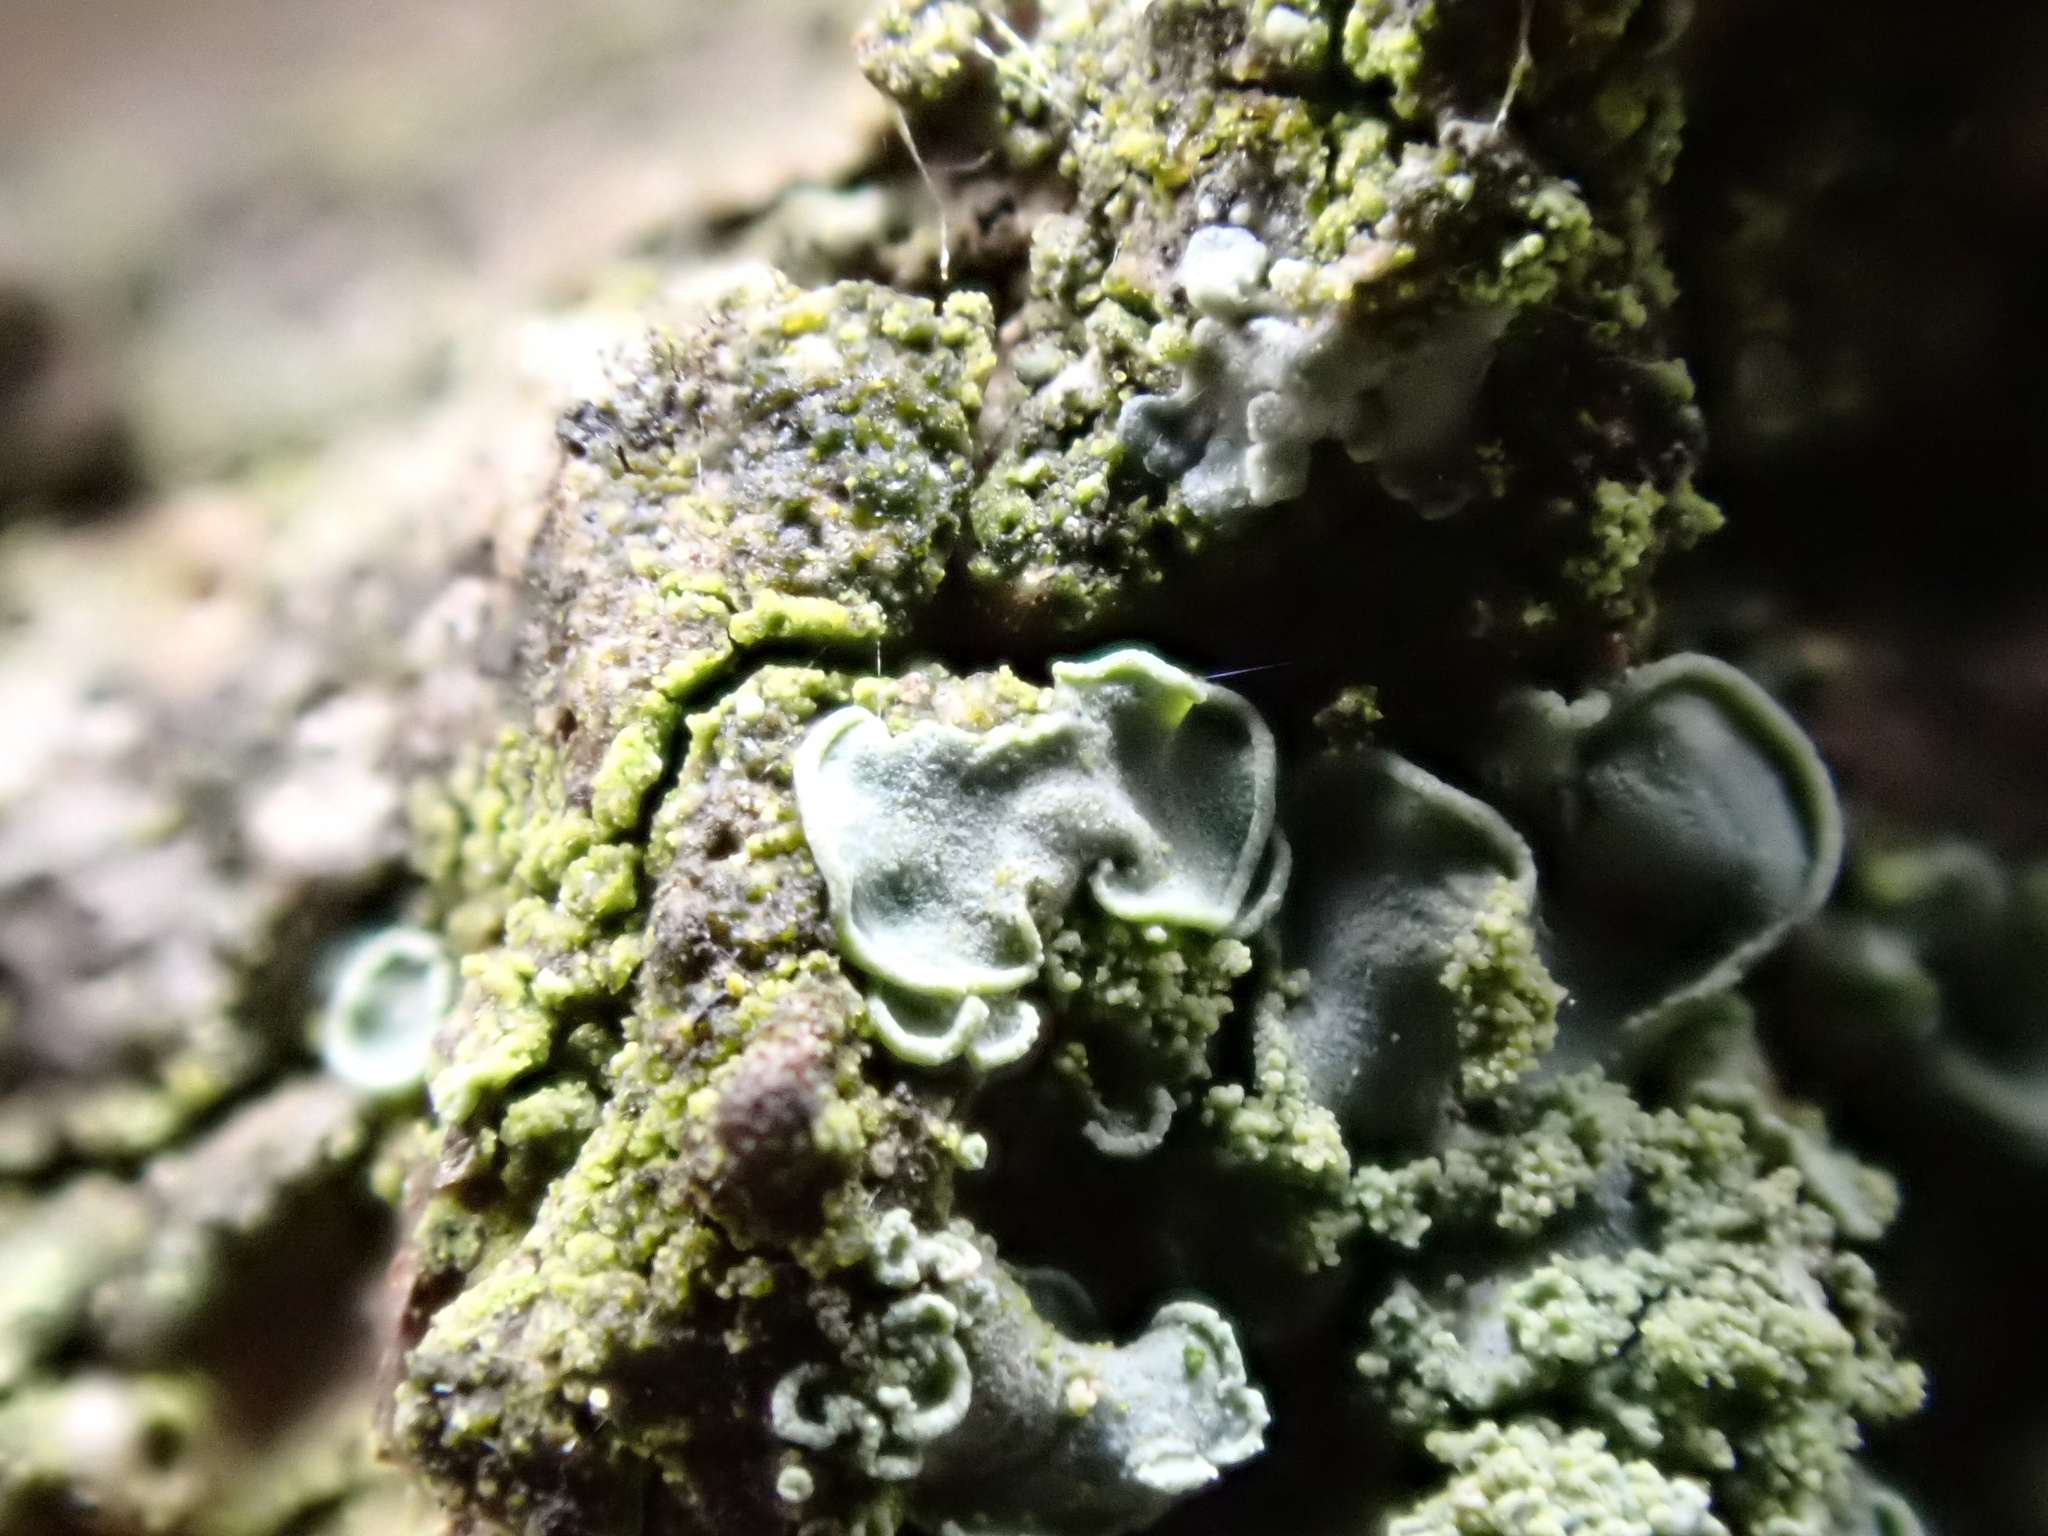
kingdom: Fungi
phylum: Ascomycota
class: Eurotiomycetes
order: Verrucariales
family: Verrucariaceae
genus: Normandina
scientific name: Normandina pulchella
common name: Elf ears lichen
